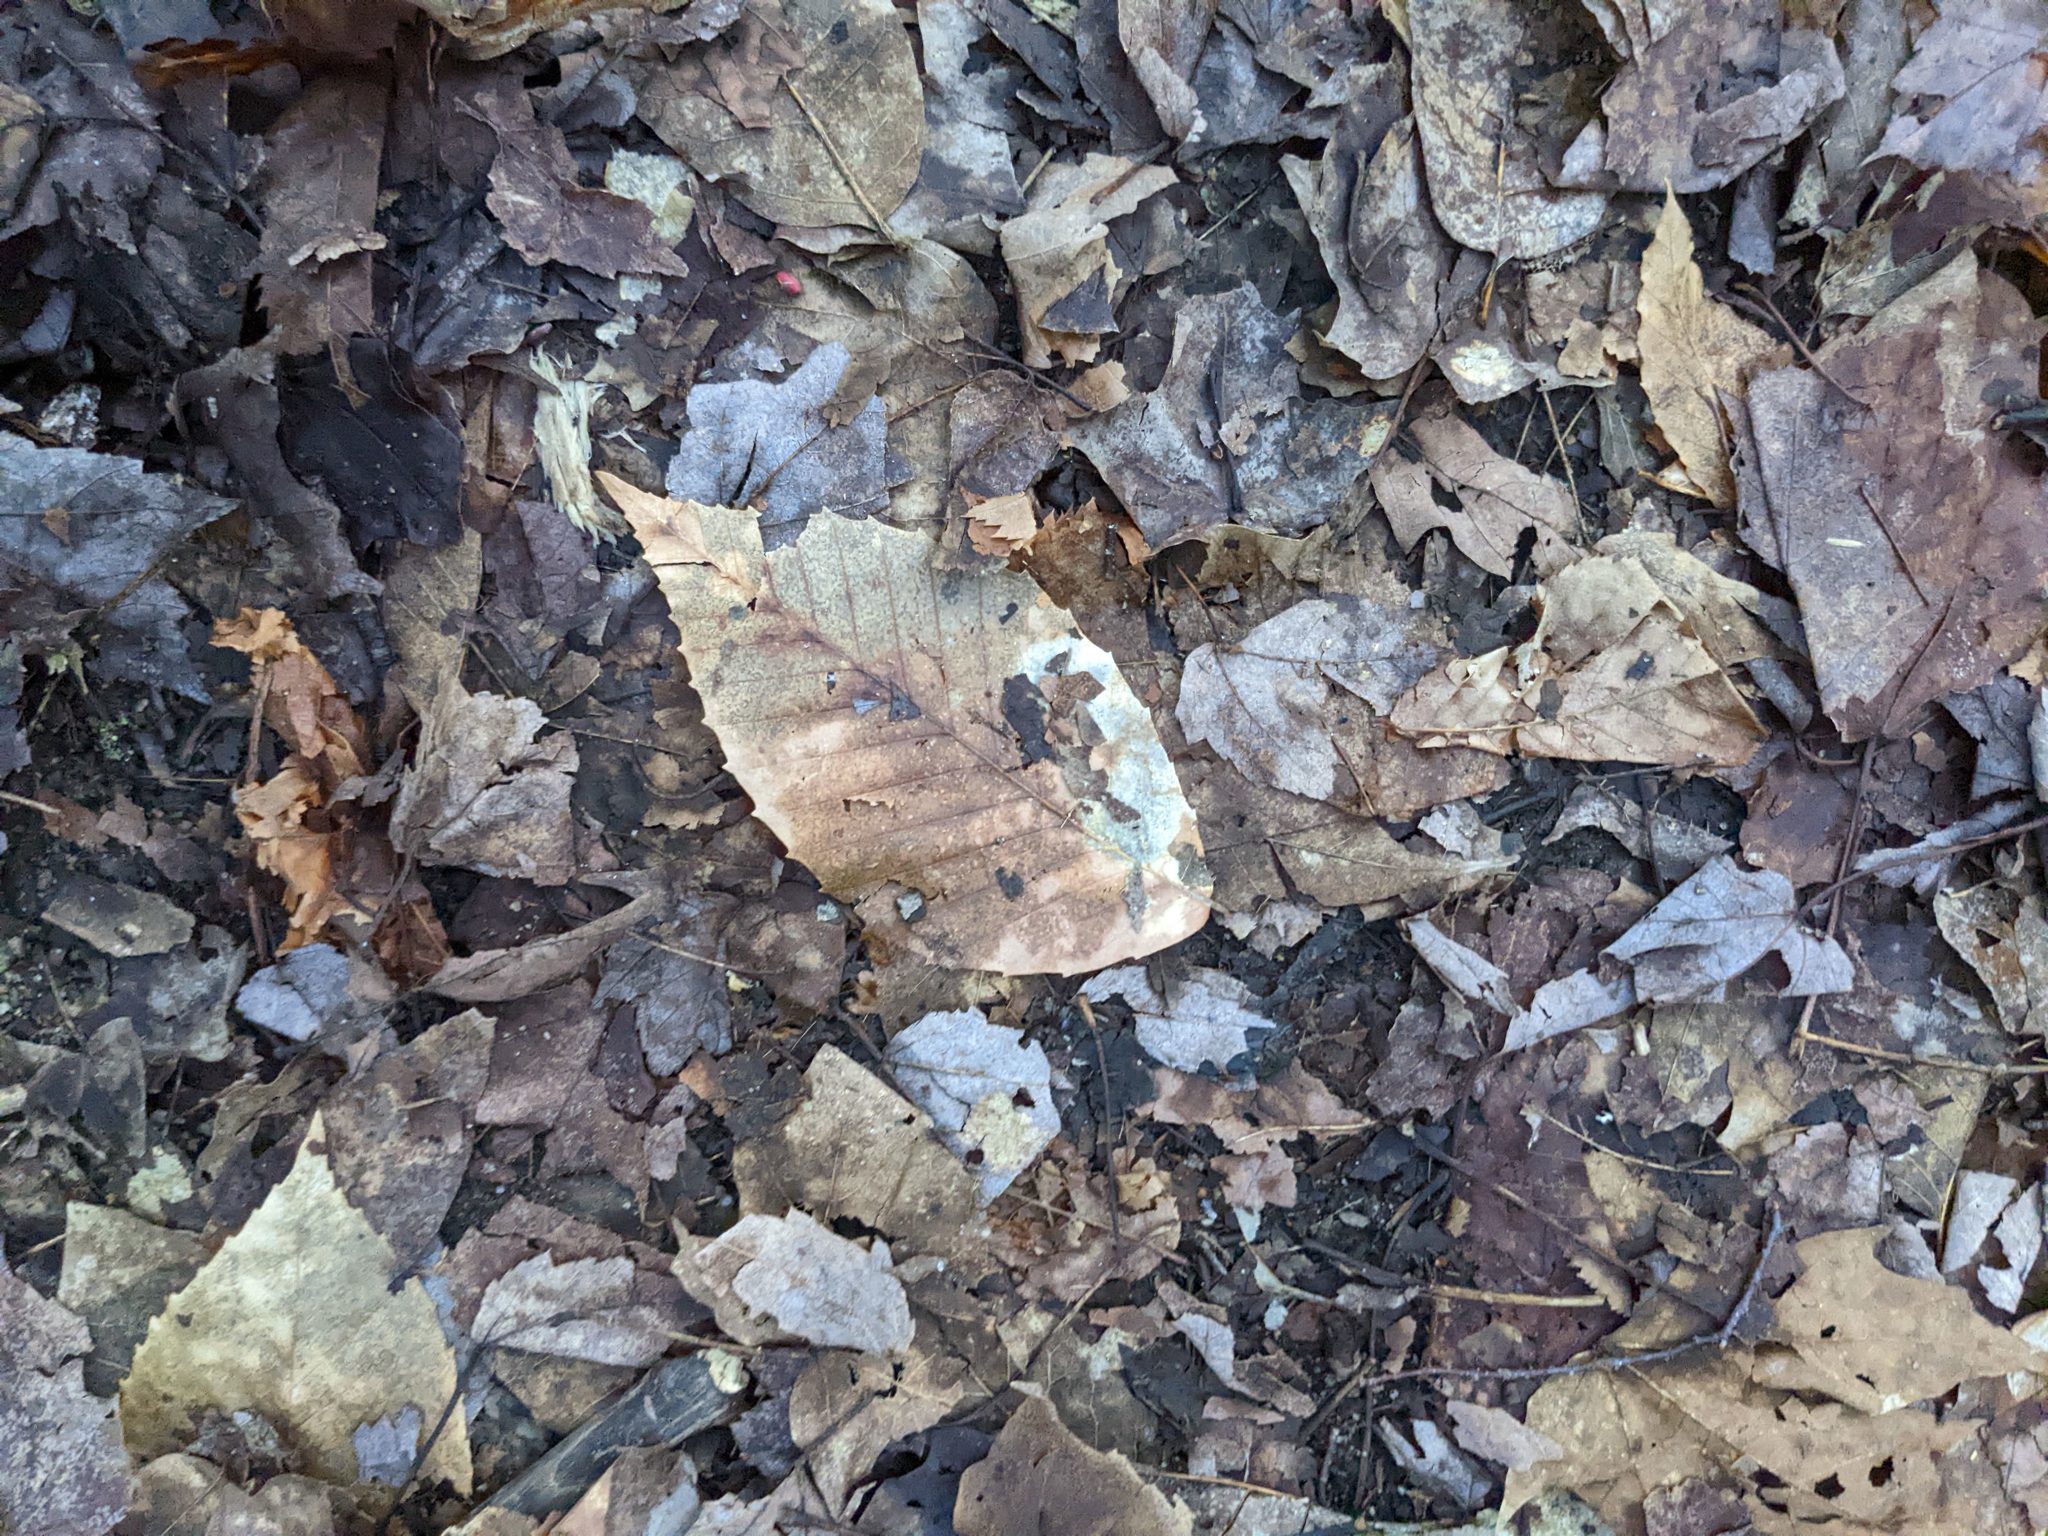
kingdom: Plantae
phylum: Tracheophyta
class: Magnoliopsida
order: Fagales
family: Fagaceae
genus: Fagus
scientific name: Fagus grandifolia
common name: American beech
